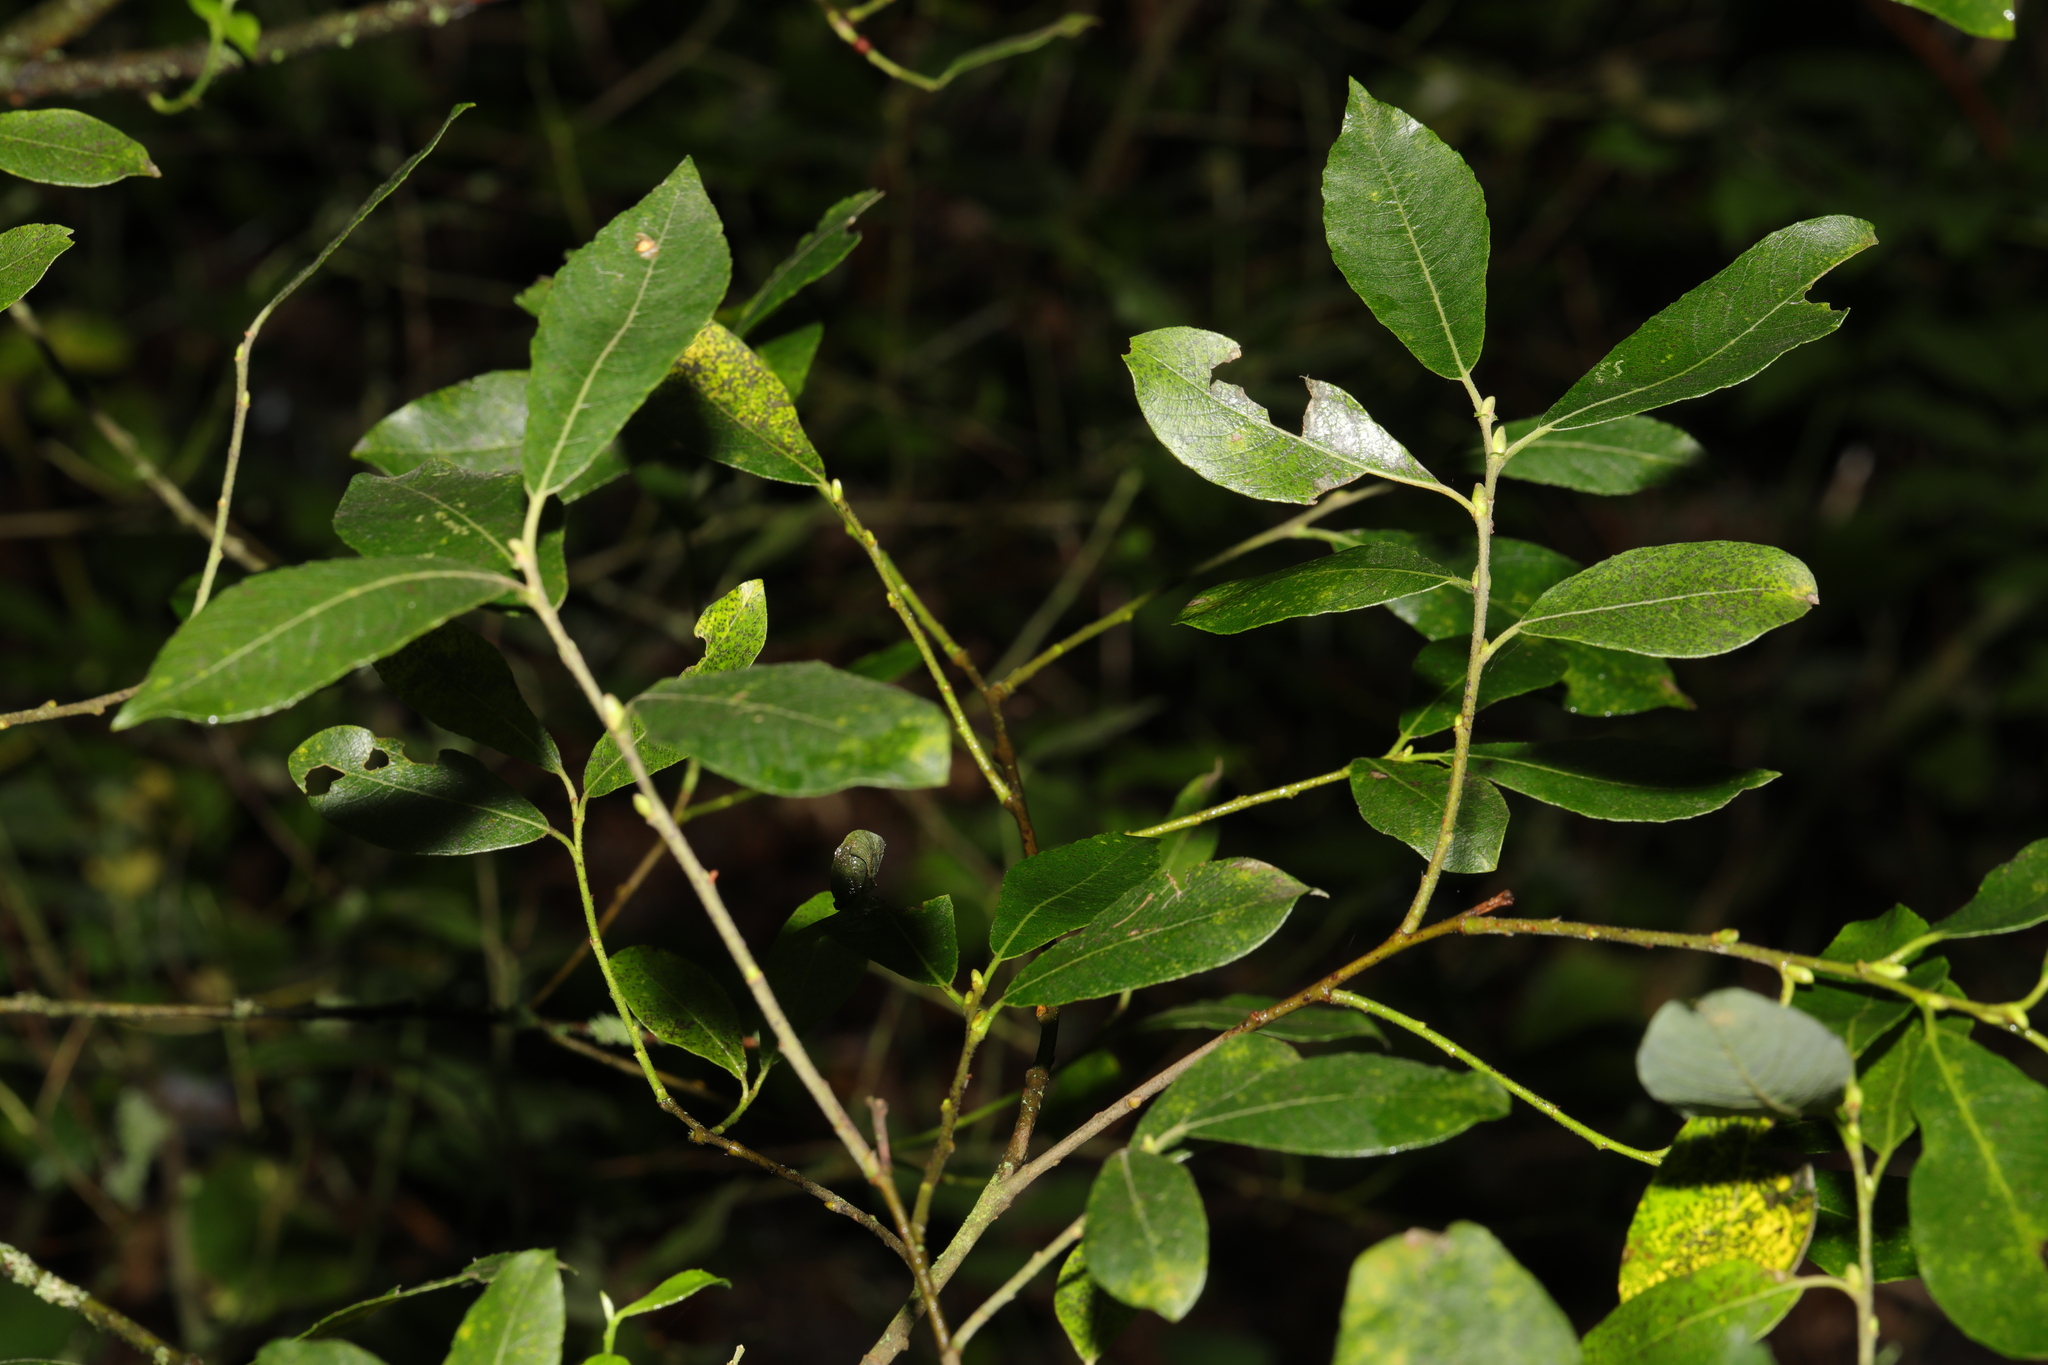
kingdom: Plantae
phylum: Tracheophyta
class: Magnoliopsida
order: Malpighiales
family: Salicaceae
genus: Salix
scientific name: Salix cinerea
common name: Common sallow
